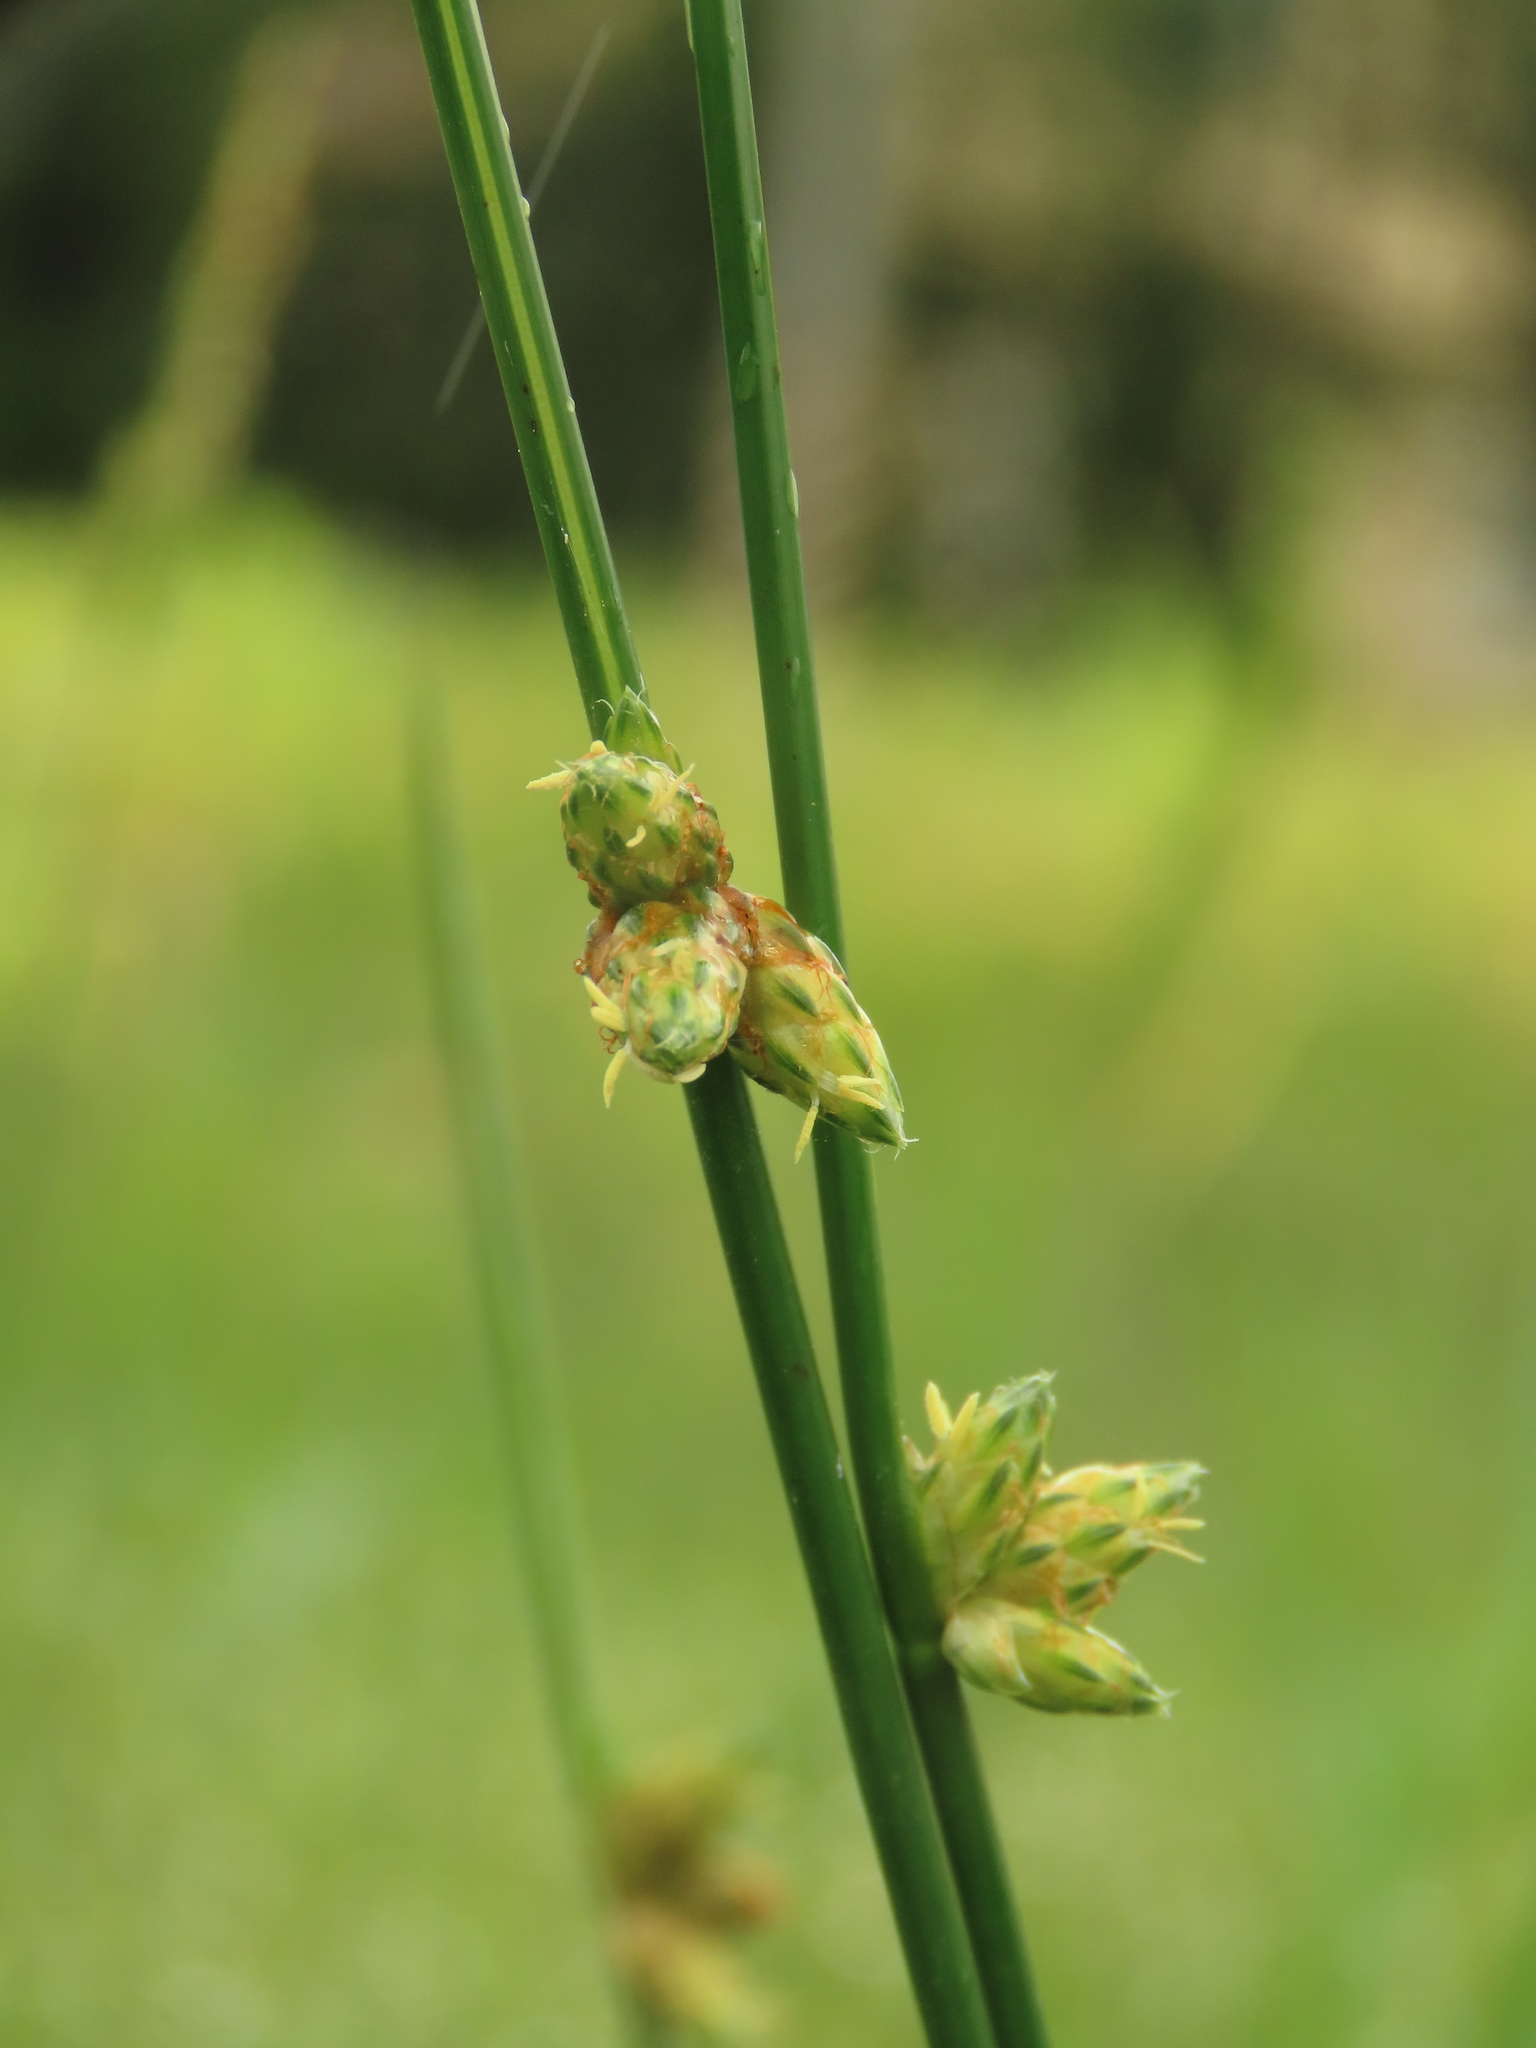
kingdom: Plantae
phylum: Tracheophyta
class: Liliopsida
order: Poales
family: Cyperaceae
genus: Schoenoplectiella
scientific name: Schoenoplectiella juncoides
